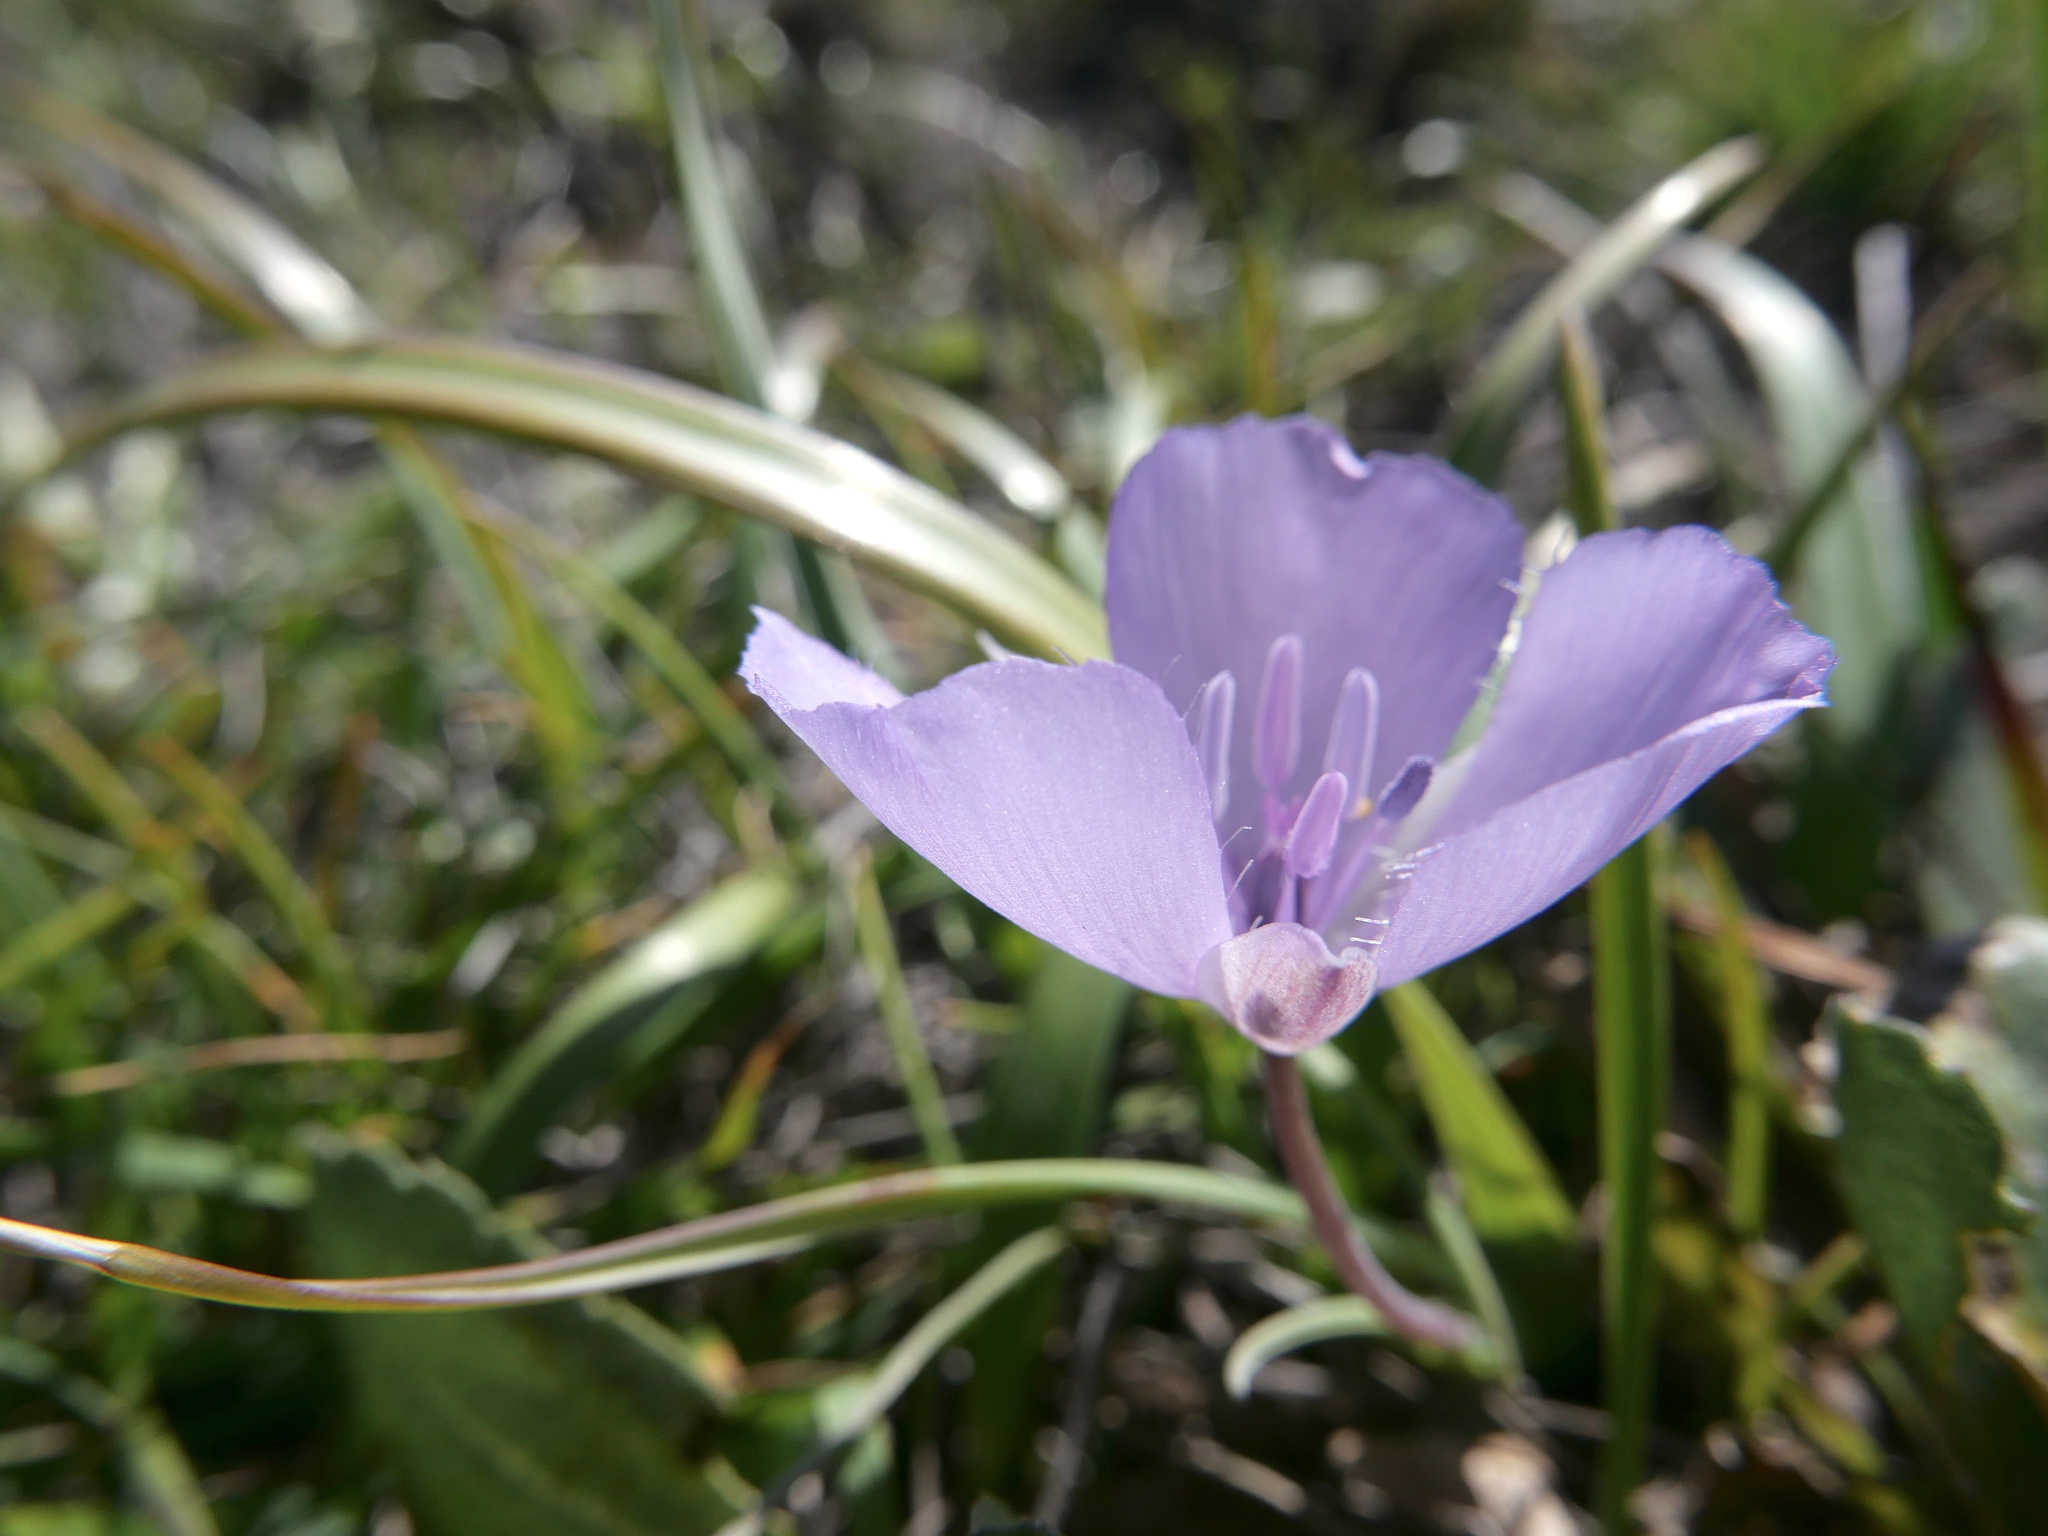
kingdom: Plantae
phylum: Tracheophyta
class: Liliopsida
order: Liliales
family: Liliaceae
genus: Calochortus
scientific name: Calochortus uniflorus
